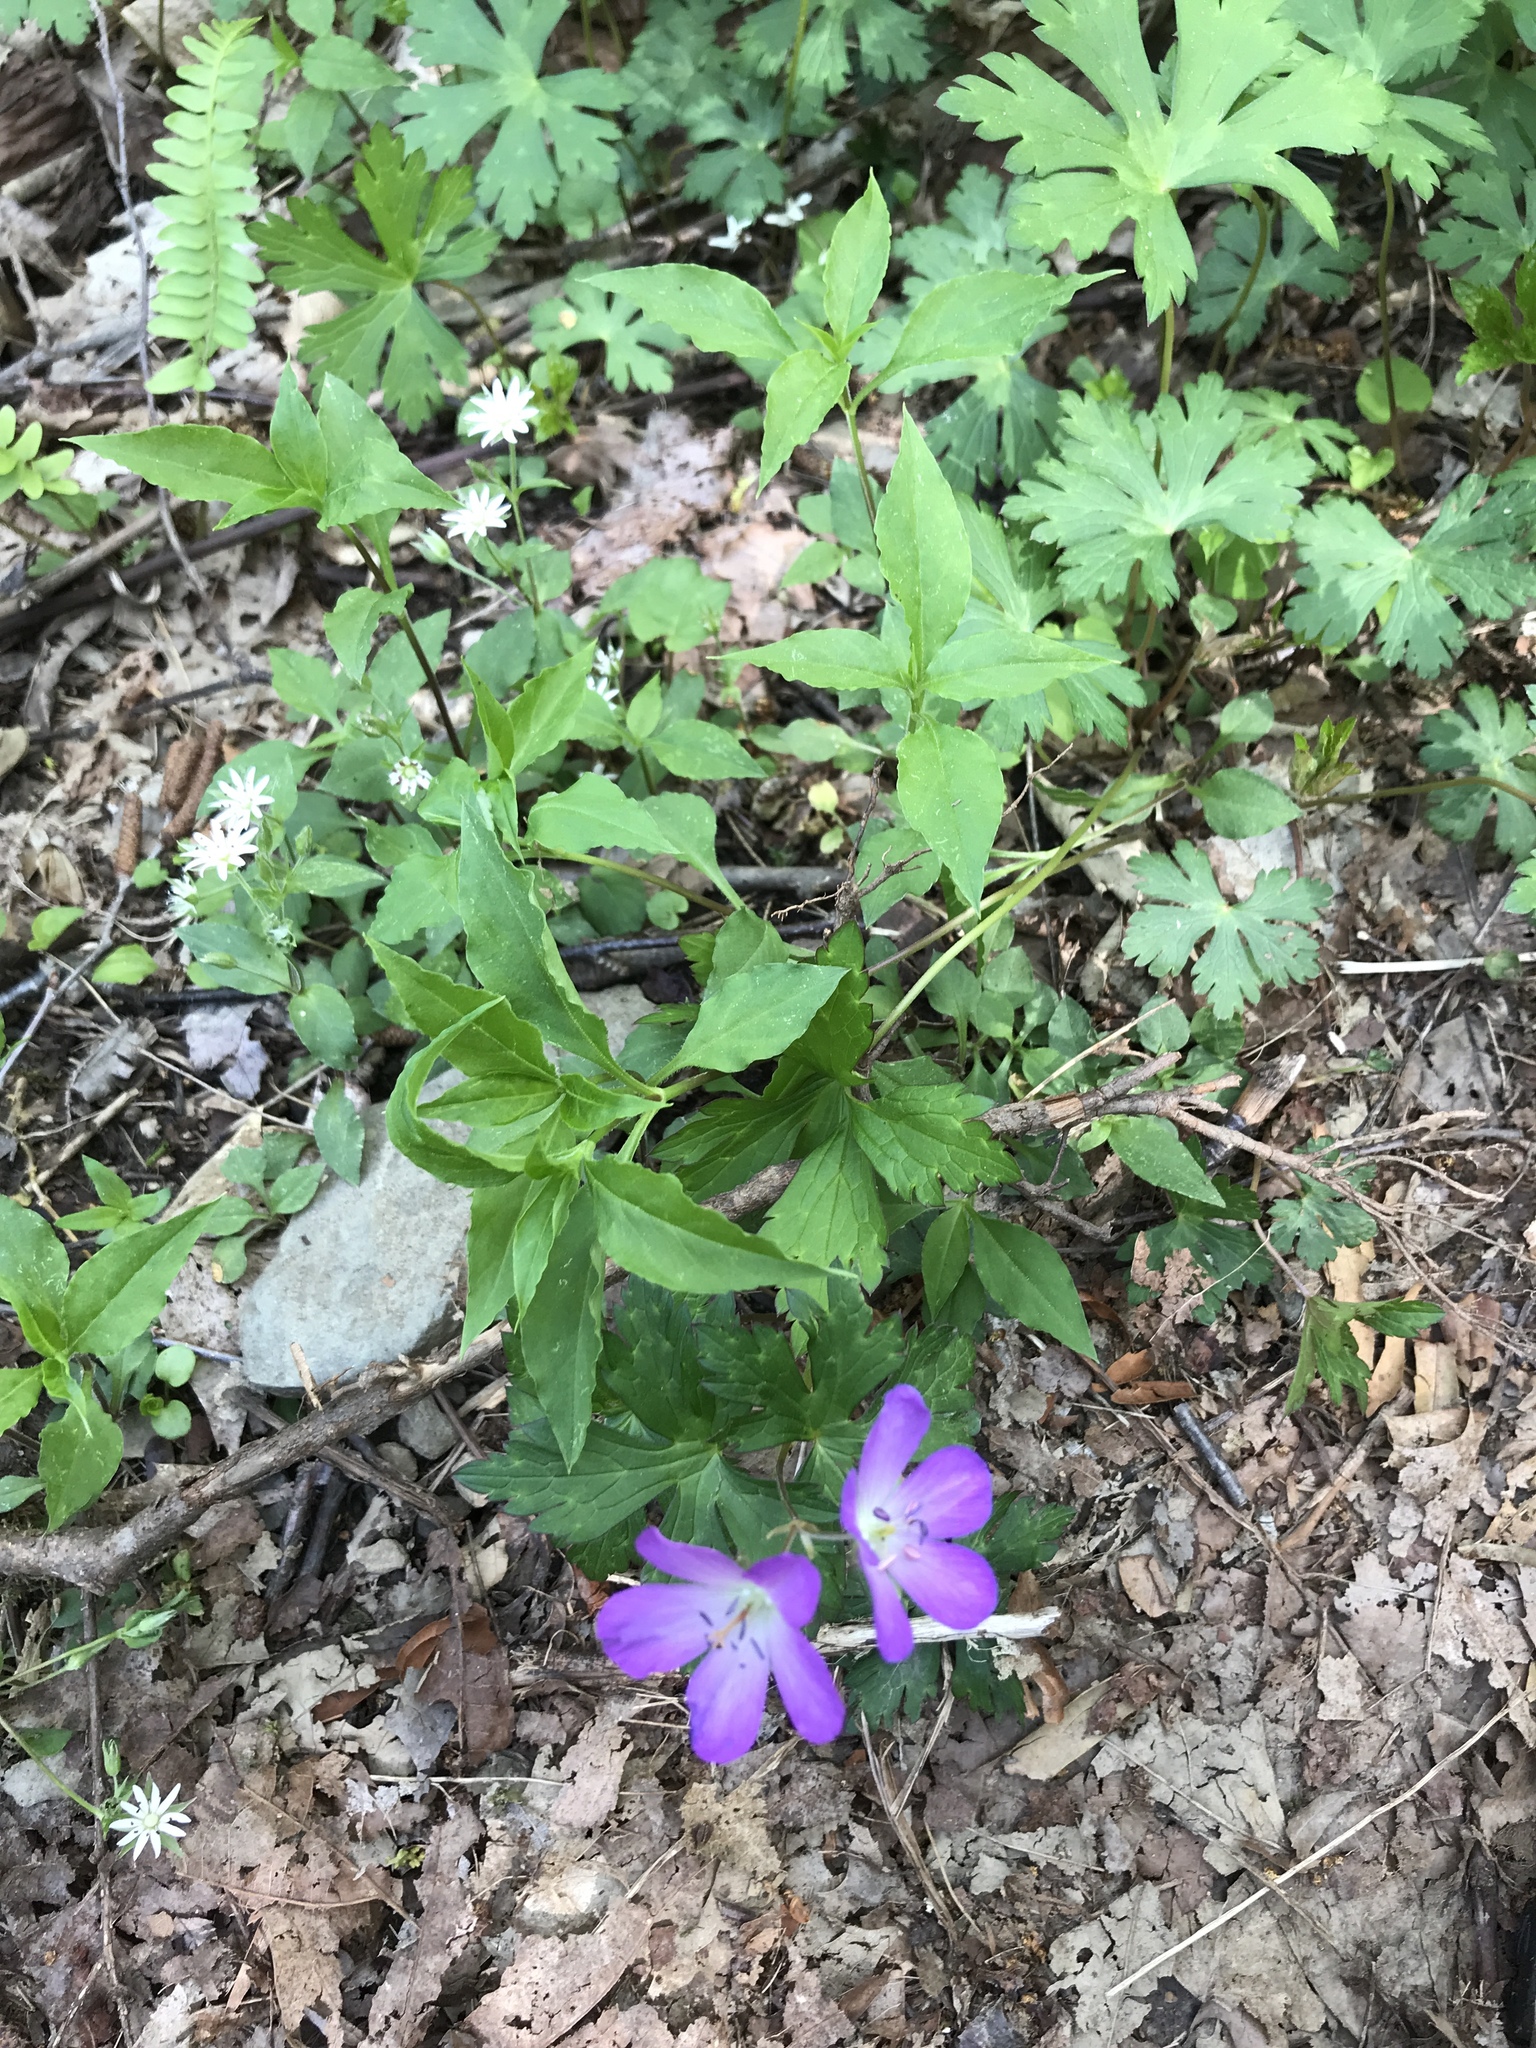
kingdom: Plantae
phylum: Tracheophyta
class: Magnoliopsida
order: Geraniales
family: Geraniaceae
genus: Geranium
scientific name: Geranium maculatum
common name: Spotted geranium
